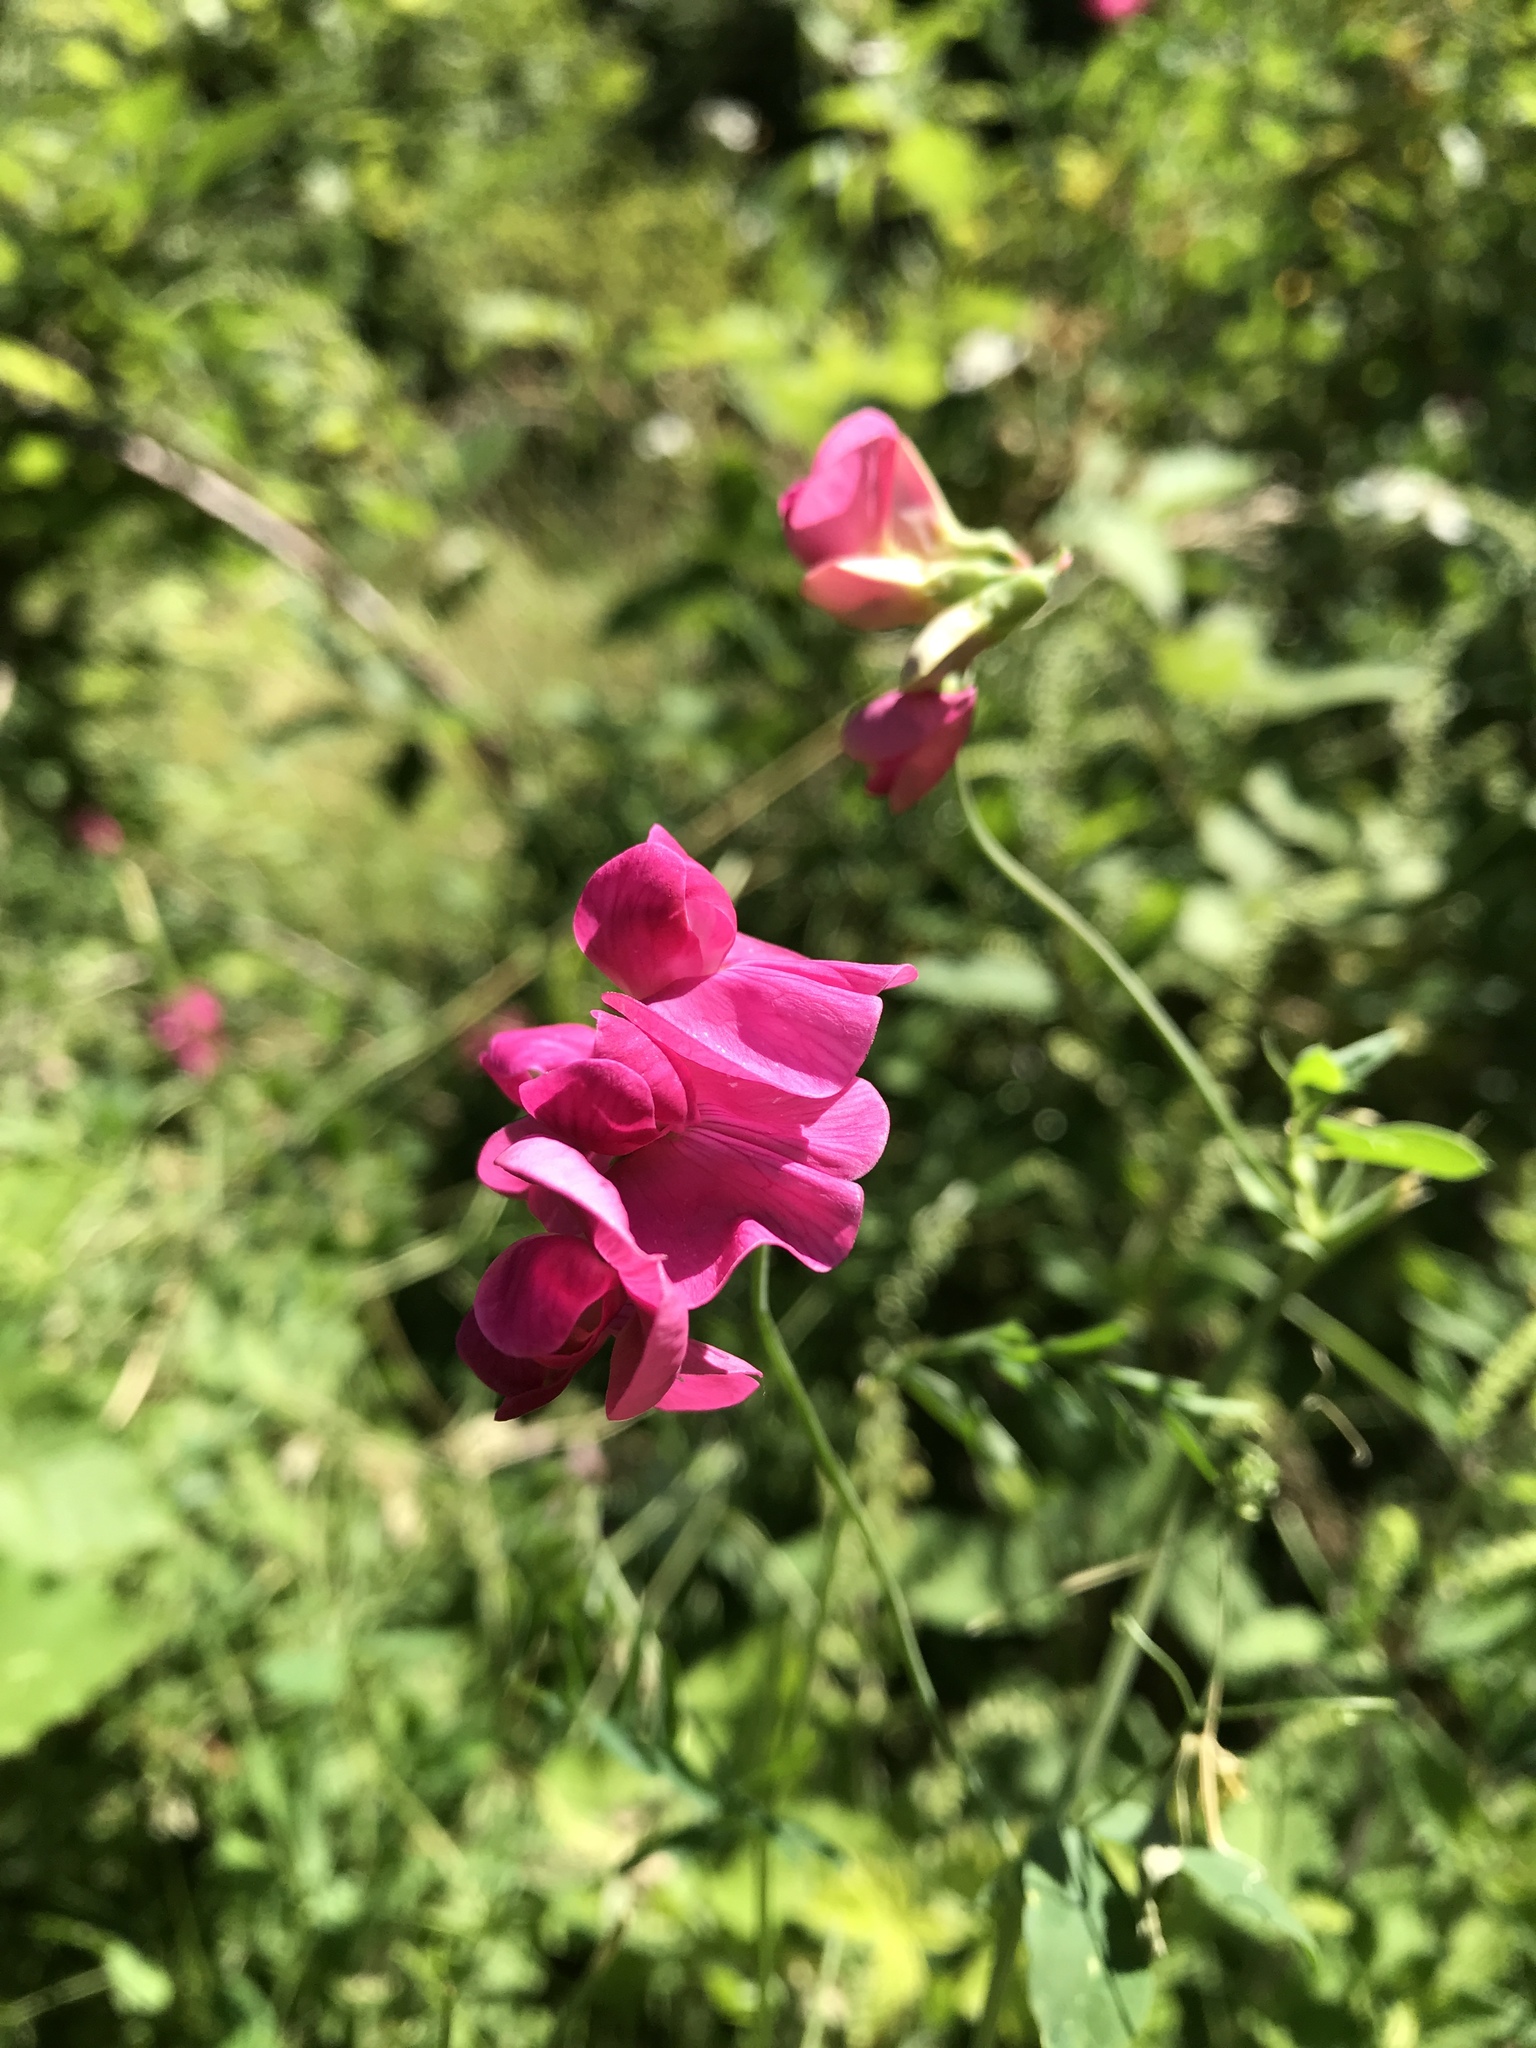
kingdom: Plantae
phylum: Tracheophyta
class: Magnoliopsida
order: Fabales
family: Fabaceae
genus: Lathyrus
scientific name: Lathyrus tuberosus
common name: Tuberous pea
